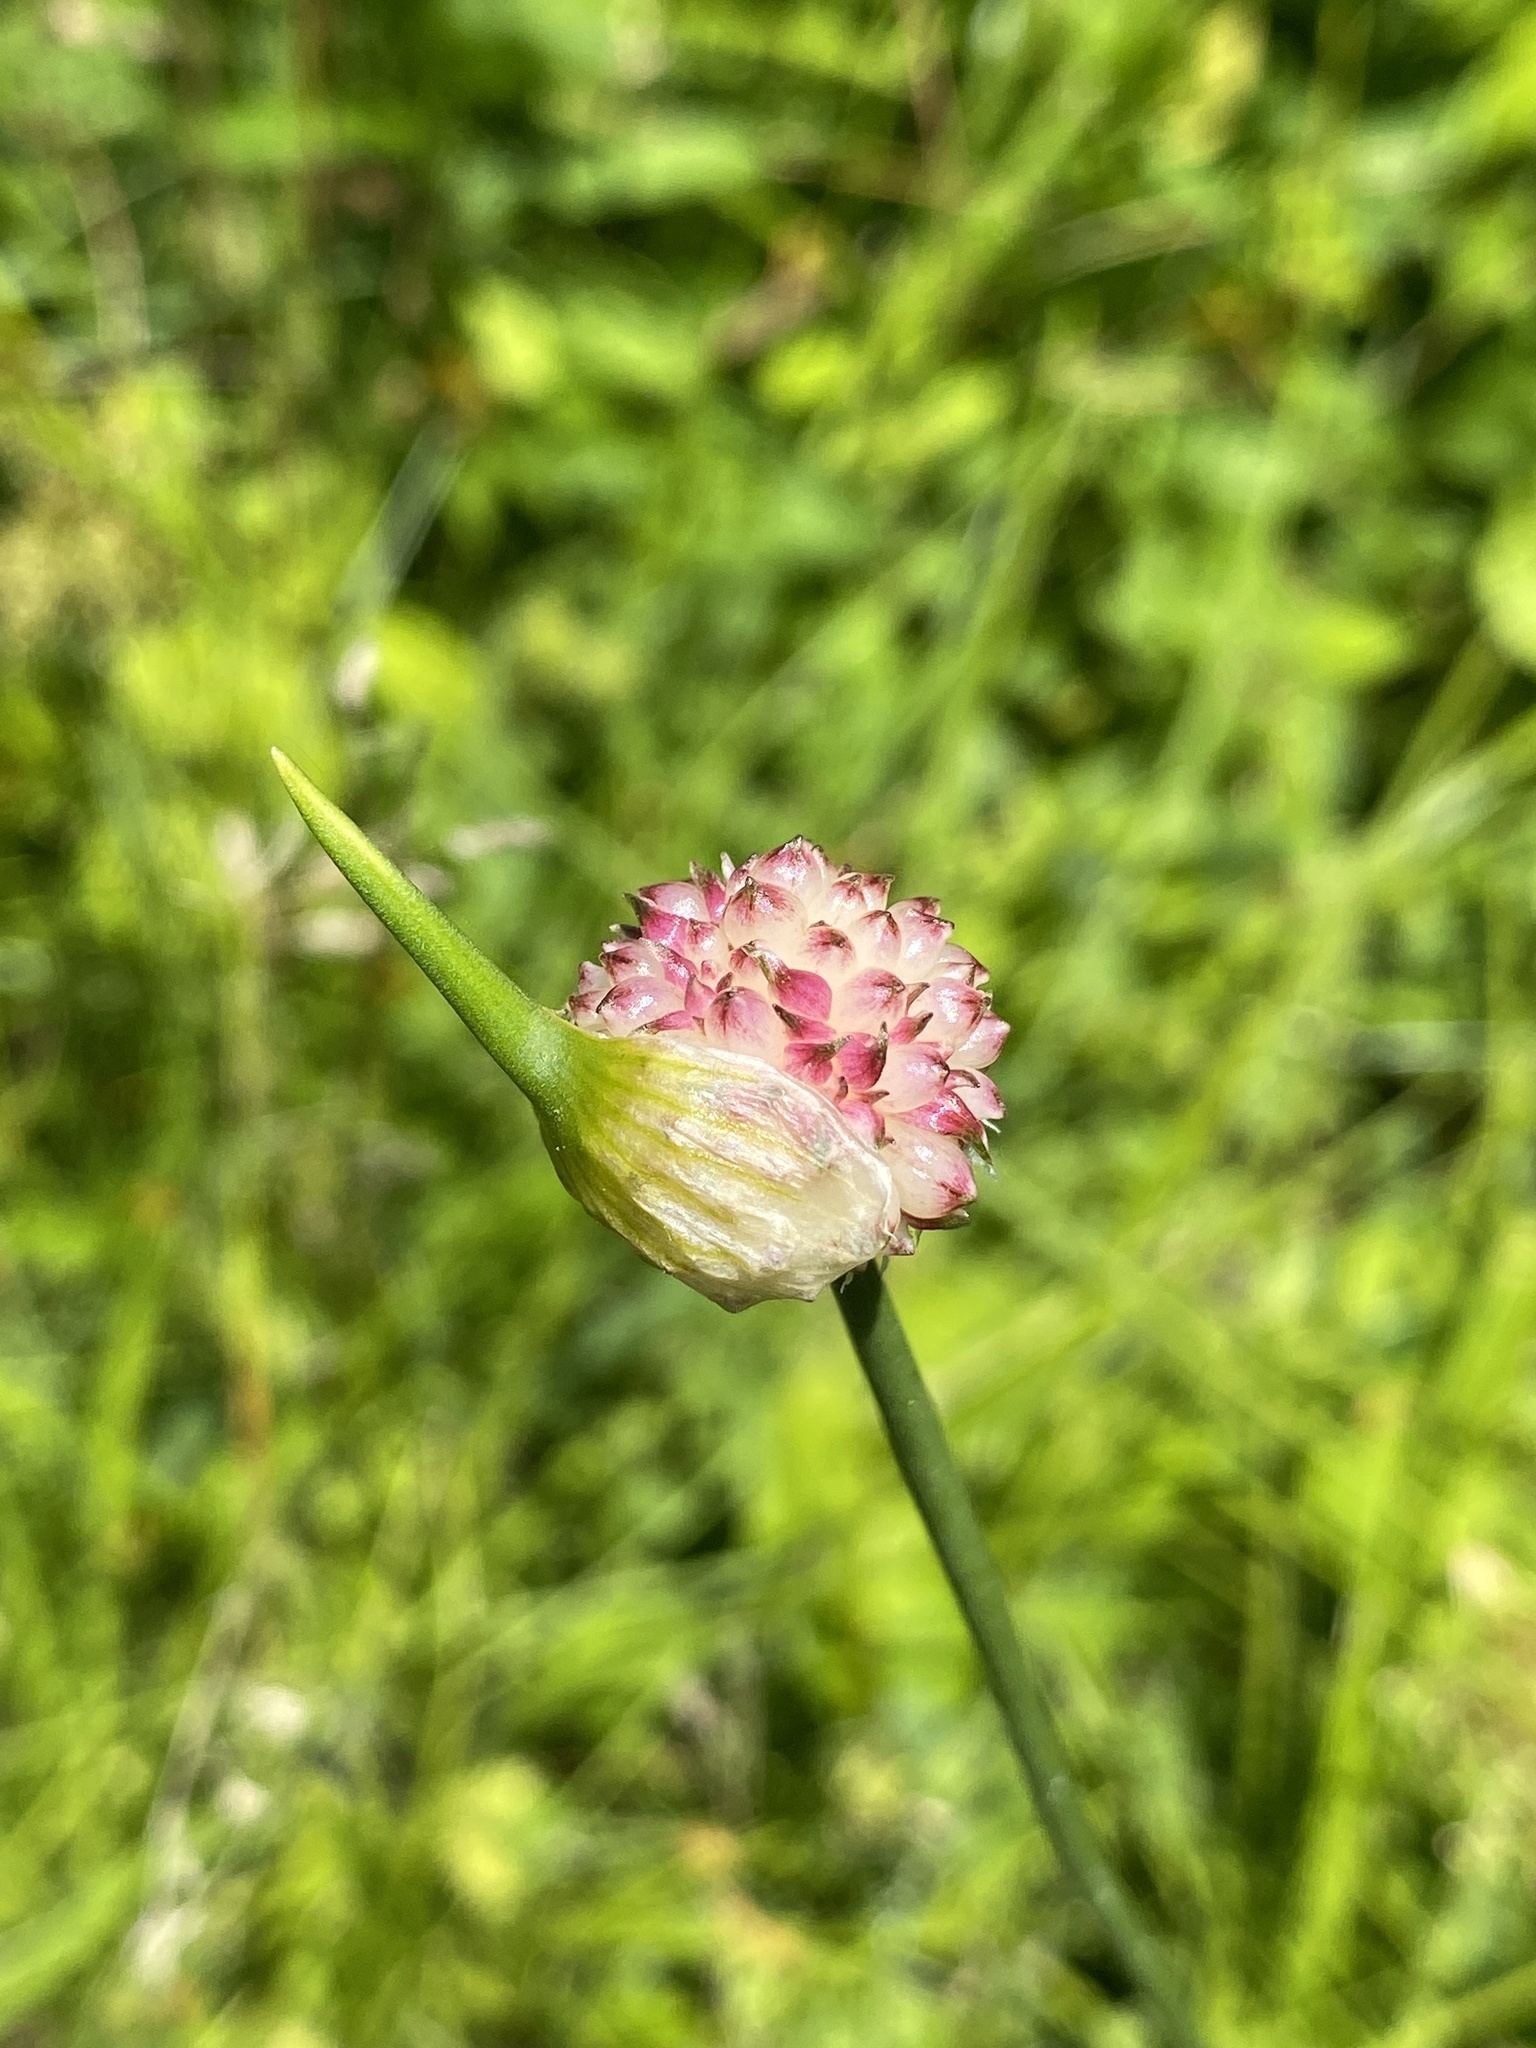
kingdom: Plantae
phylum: Tracheophyta
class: Liliopsida
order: Asparagales
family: Amaryllidaceae
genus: Allium
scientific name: Allium vineale
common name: Crow garlic
